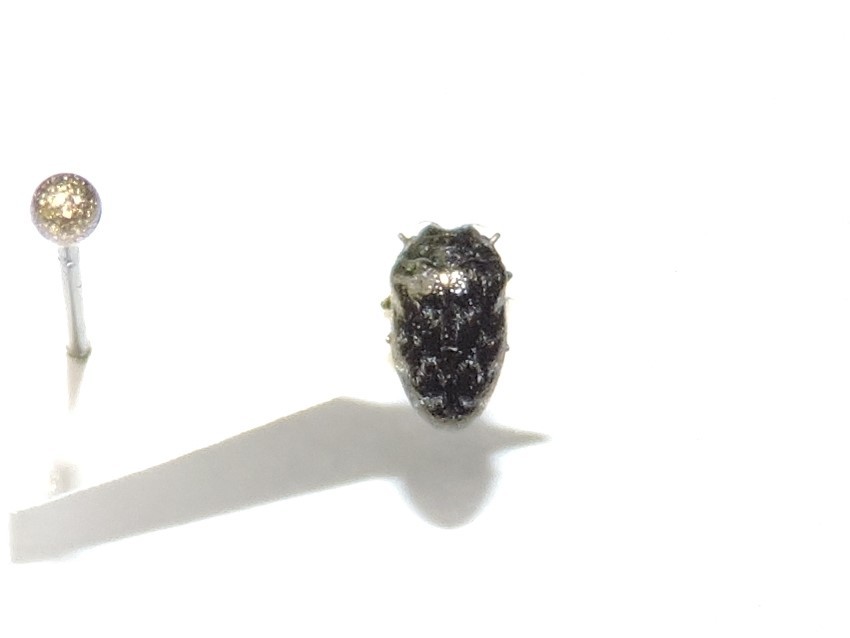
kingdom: Animalia
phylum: Arthropoda
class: Insecta
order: Coleoptera
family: Buprestidae
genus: Trachys
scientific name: Trachys minutus
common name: Metallic wood-boring beetle
